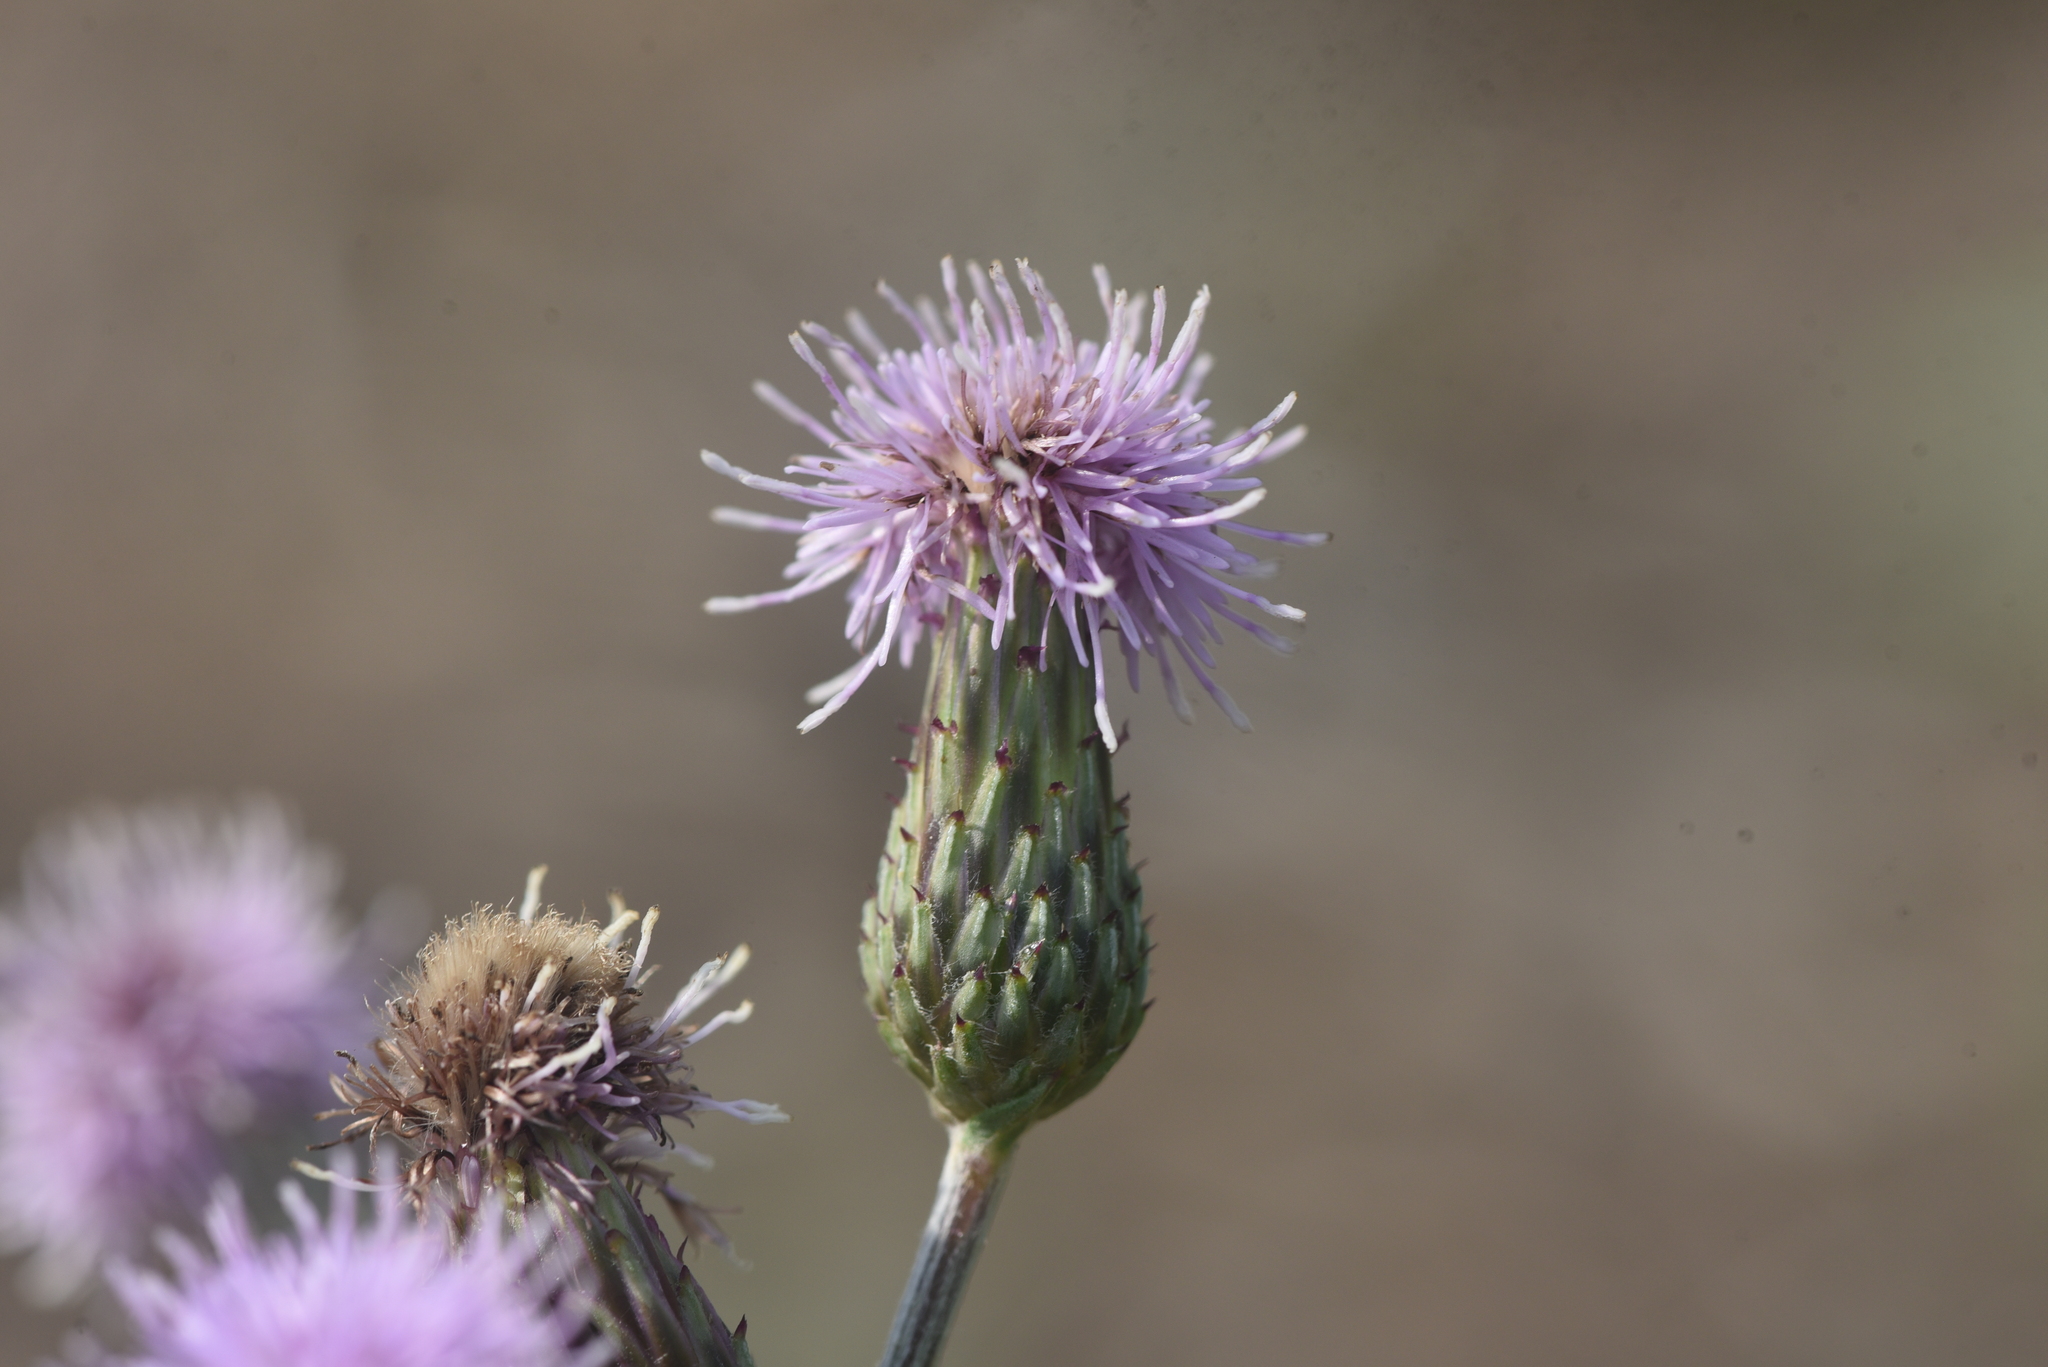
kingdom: Plantae
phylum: Tracheophyta
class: Magnoliopsida
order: Asterales
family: Asteraceae
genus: Cirsium
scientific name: Cirsium arvense
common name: Creeping thistle
